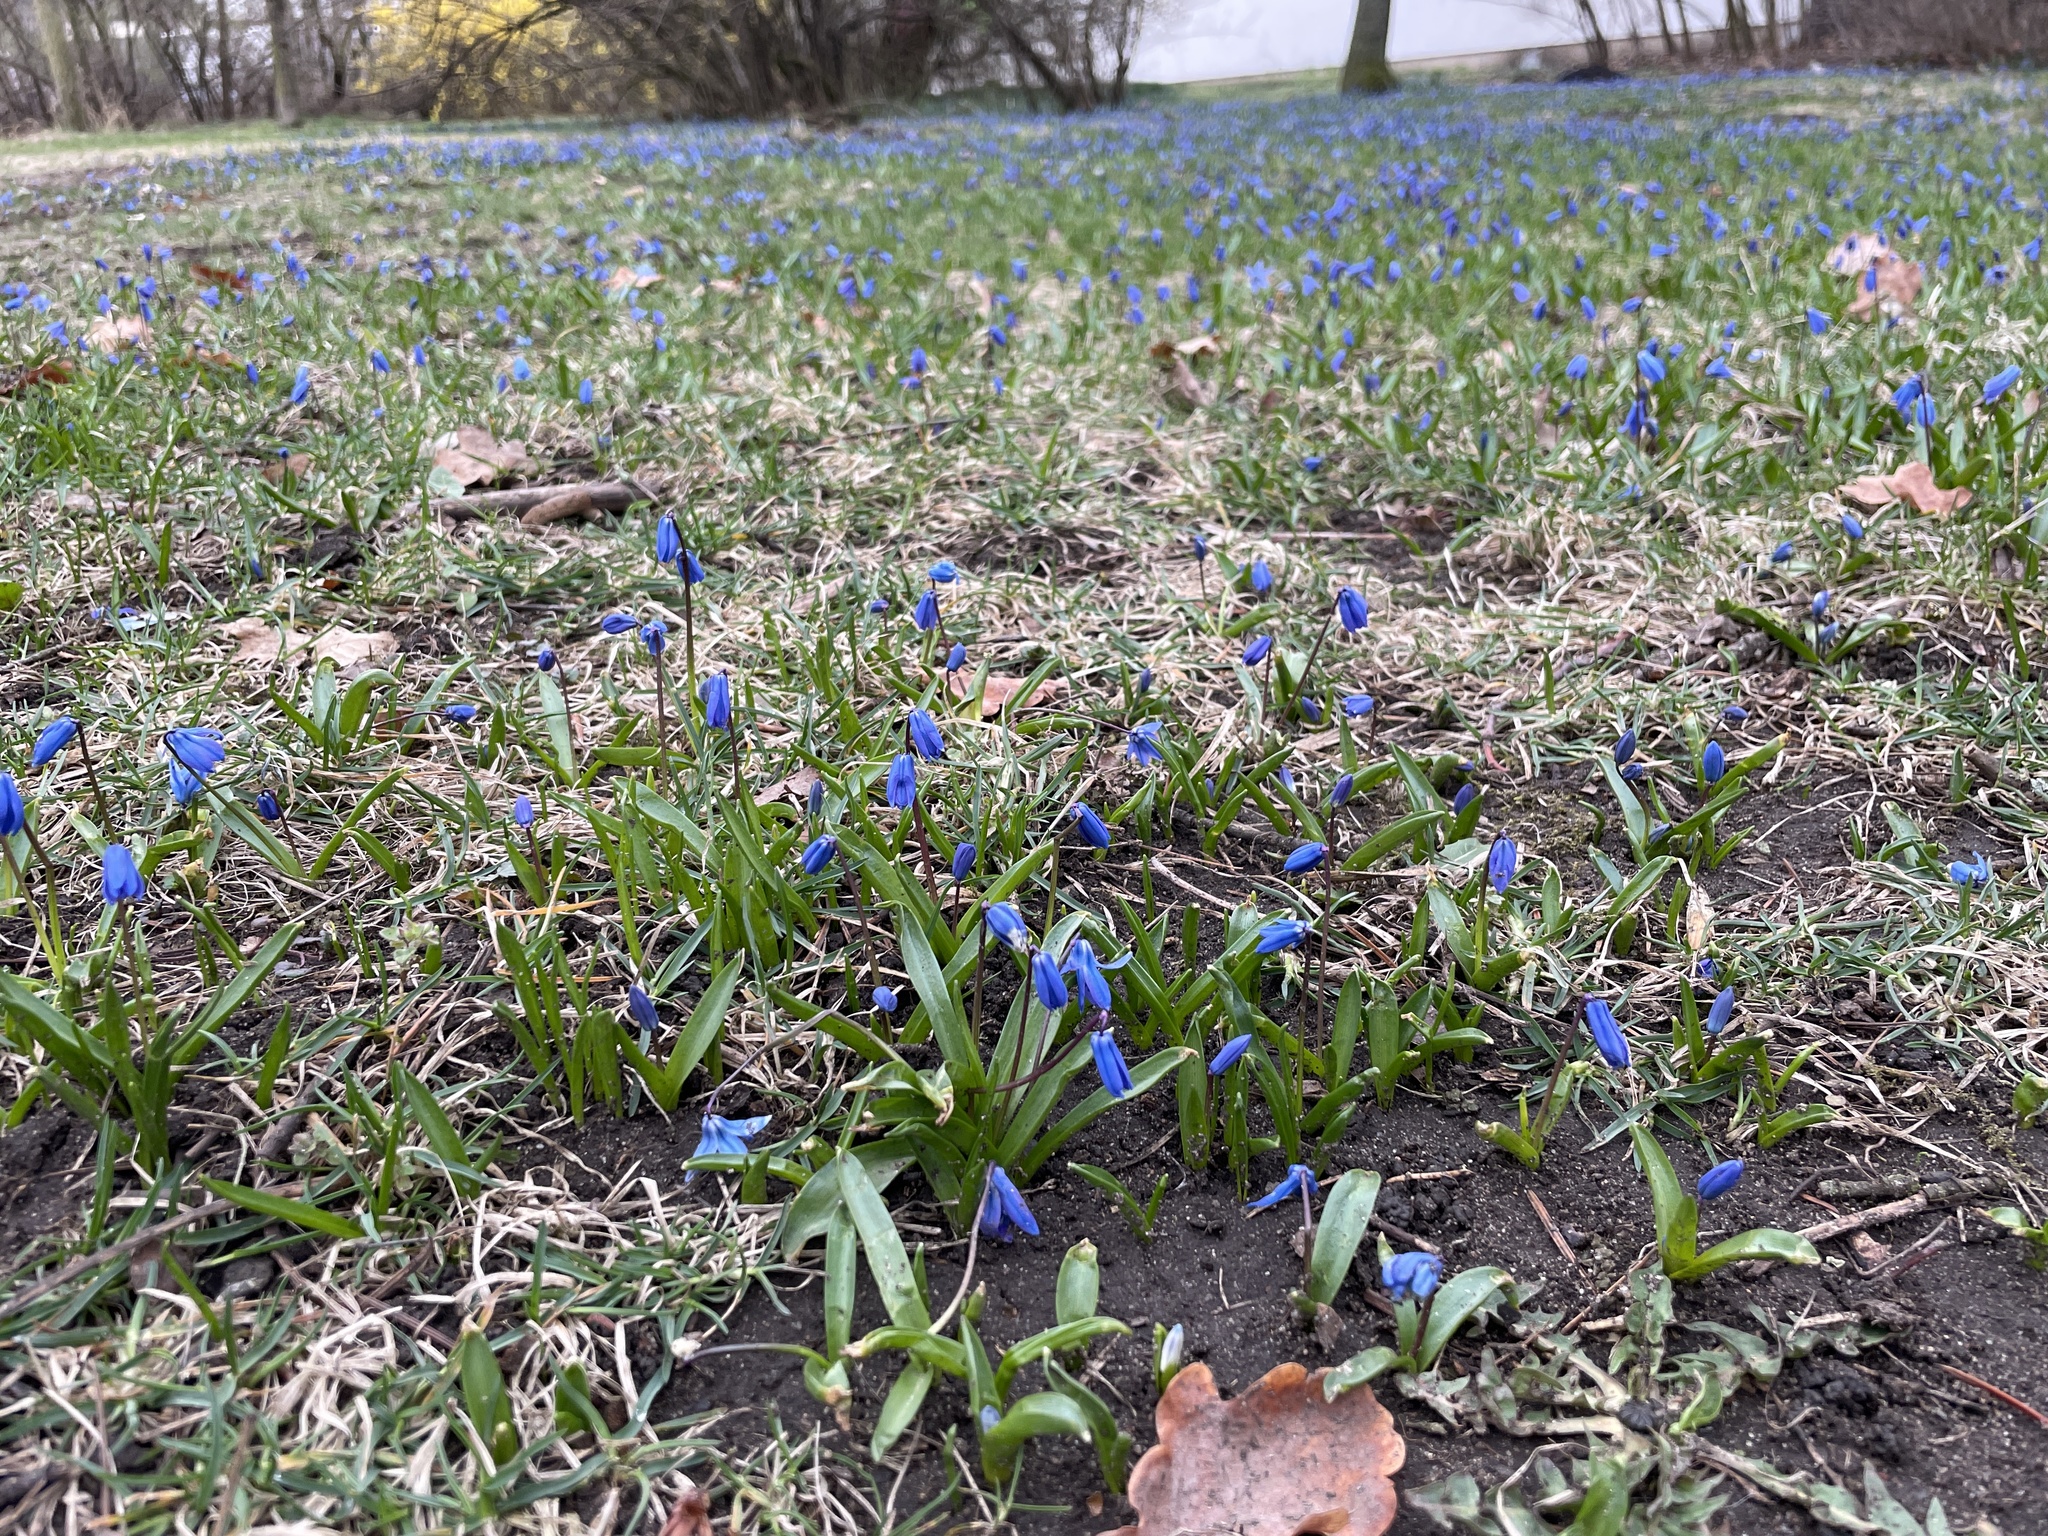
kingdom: Plantae
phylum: Tracheophyta
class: Liliopsida
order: Asparagales
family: Asparagaceae
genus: Scilla
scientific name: Scilla siberica
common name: Siberian squill
